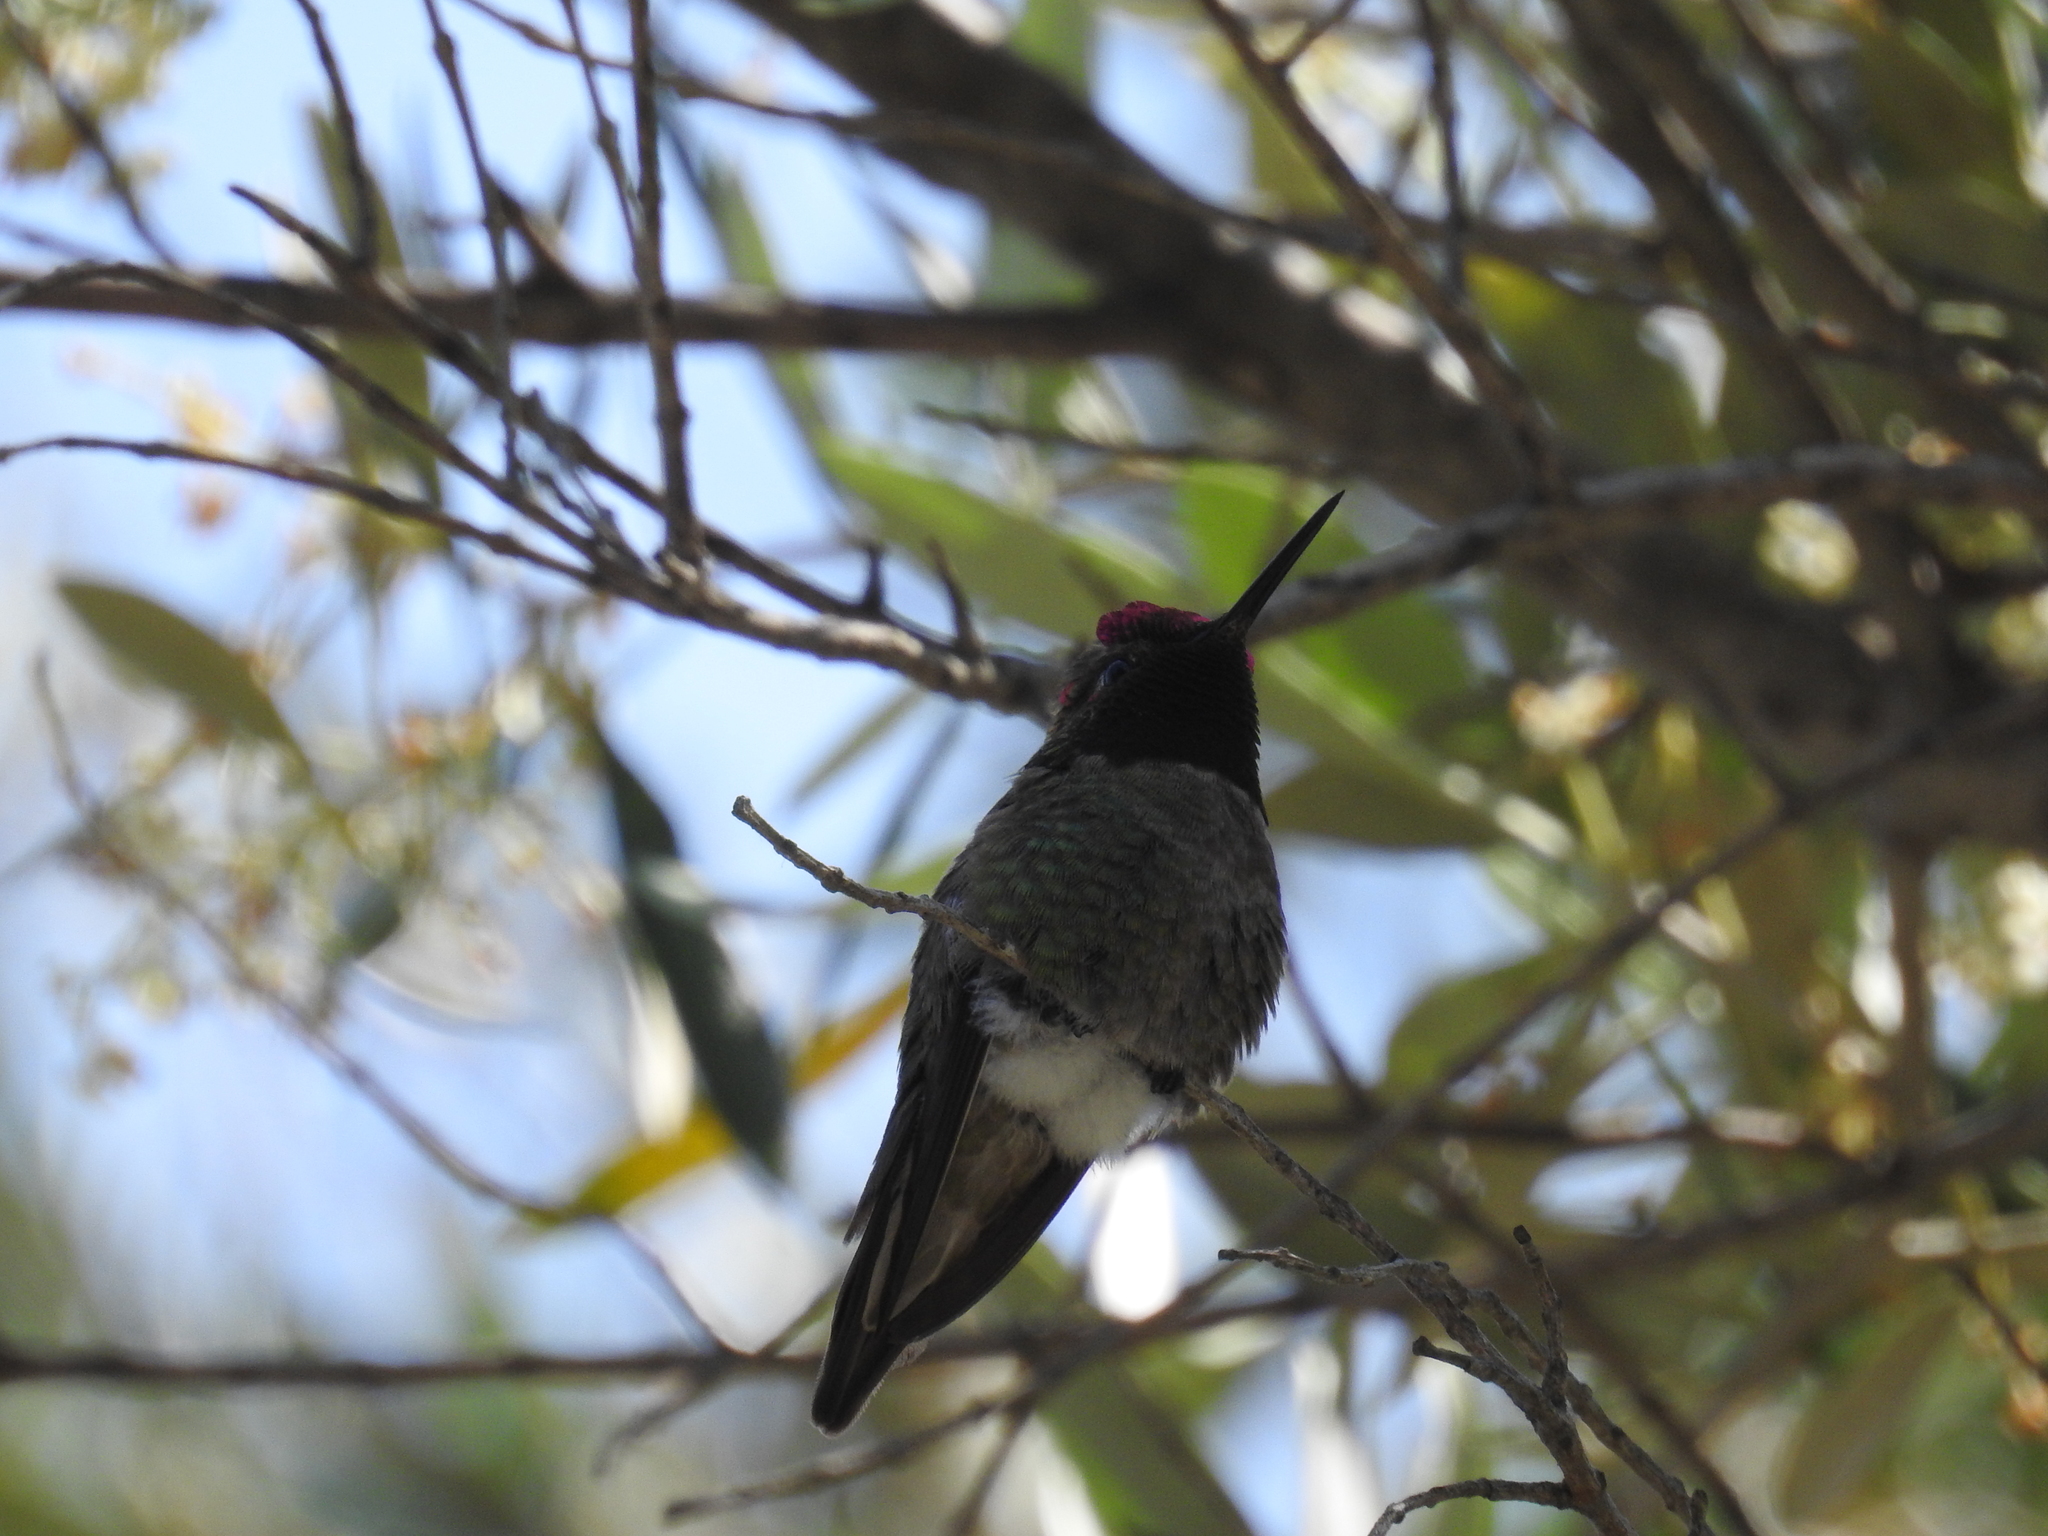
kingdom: Animalia
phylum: Chordata
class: Aves
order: Apodiformes
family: Trochilidae
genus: Calypte
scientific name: Calypte anna
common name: Anna's hummingbird
